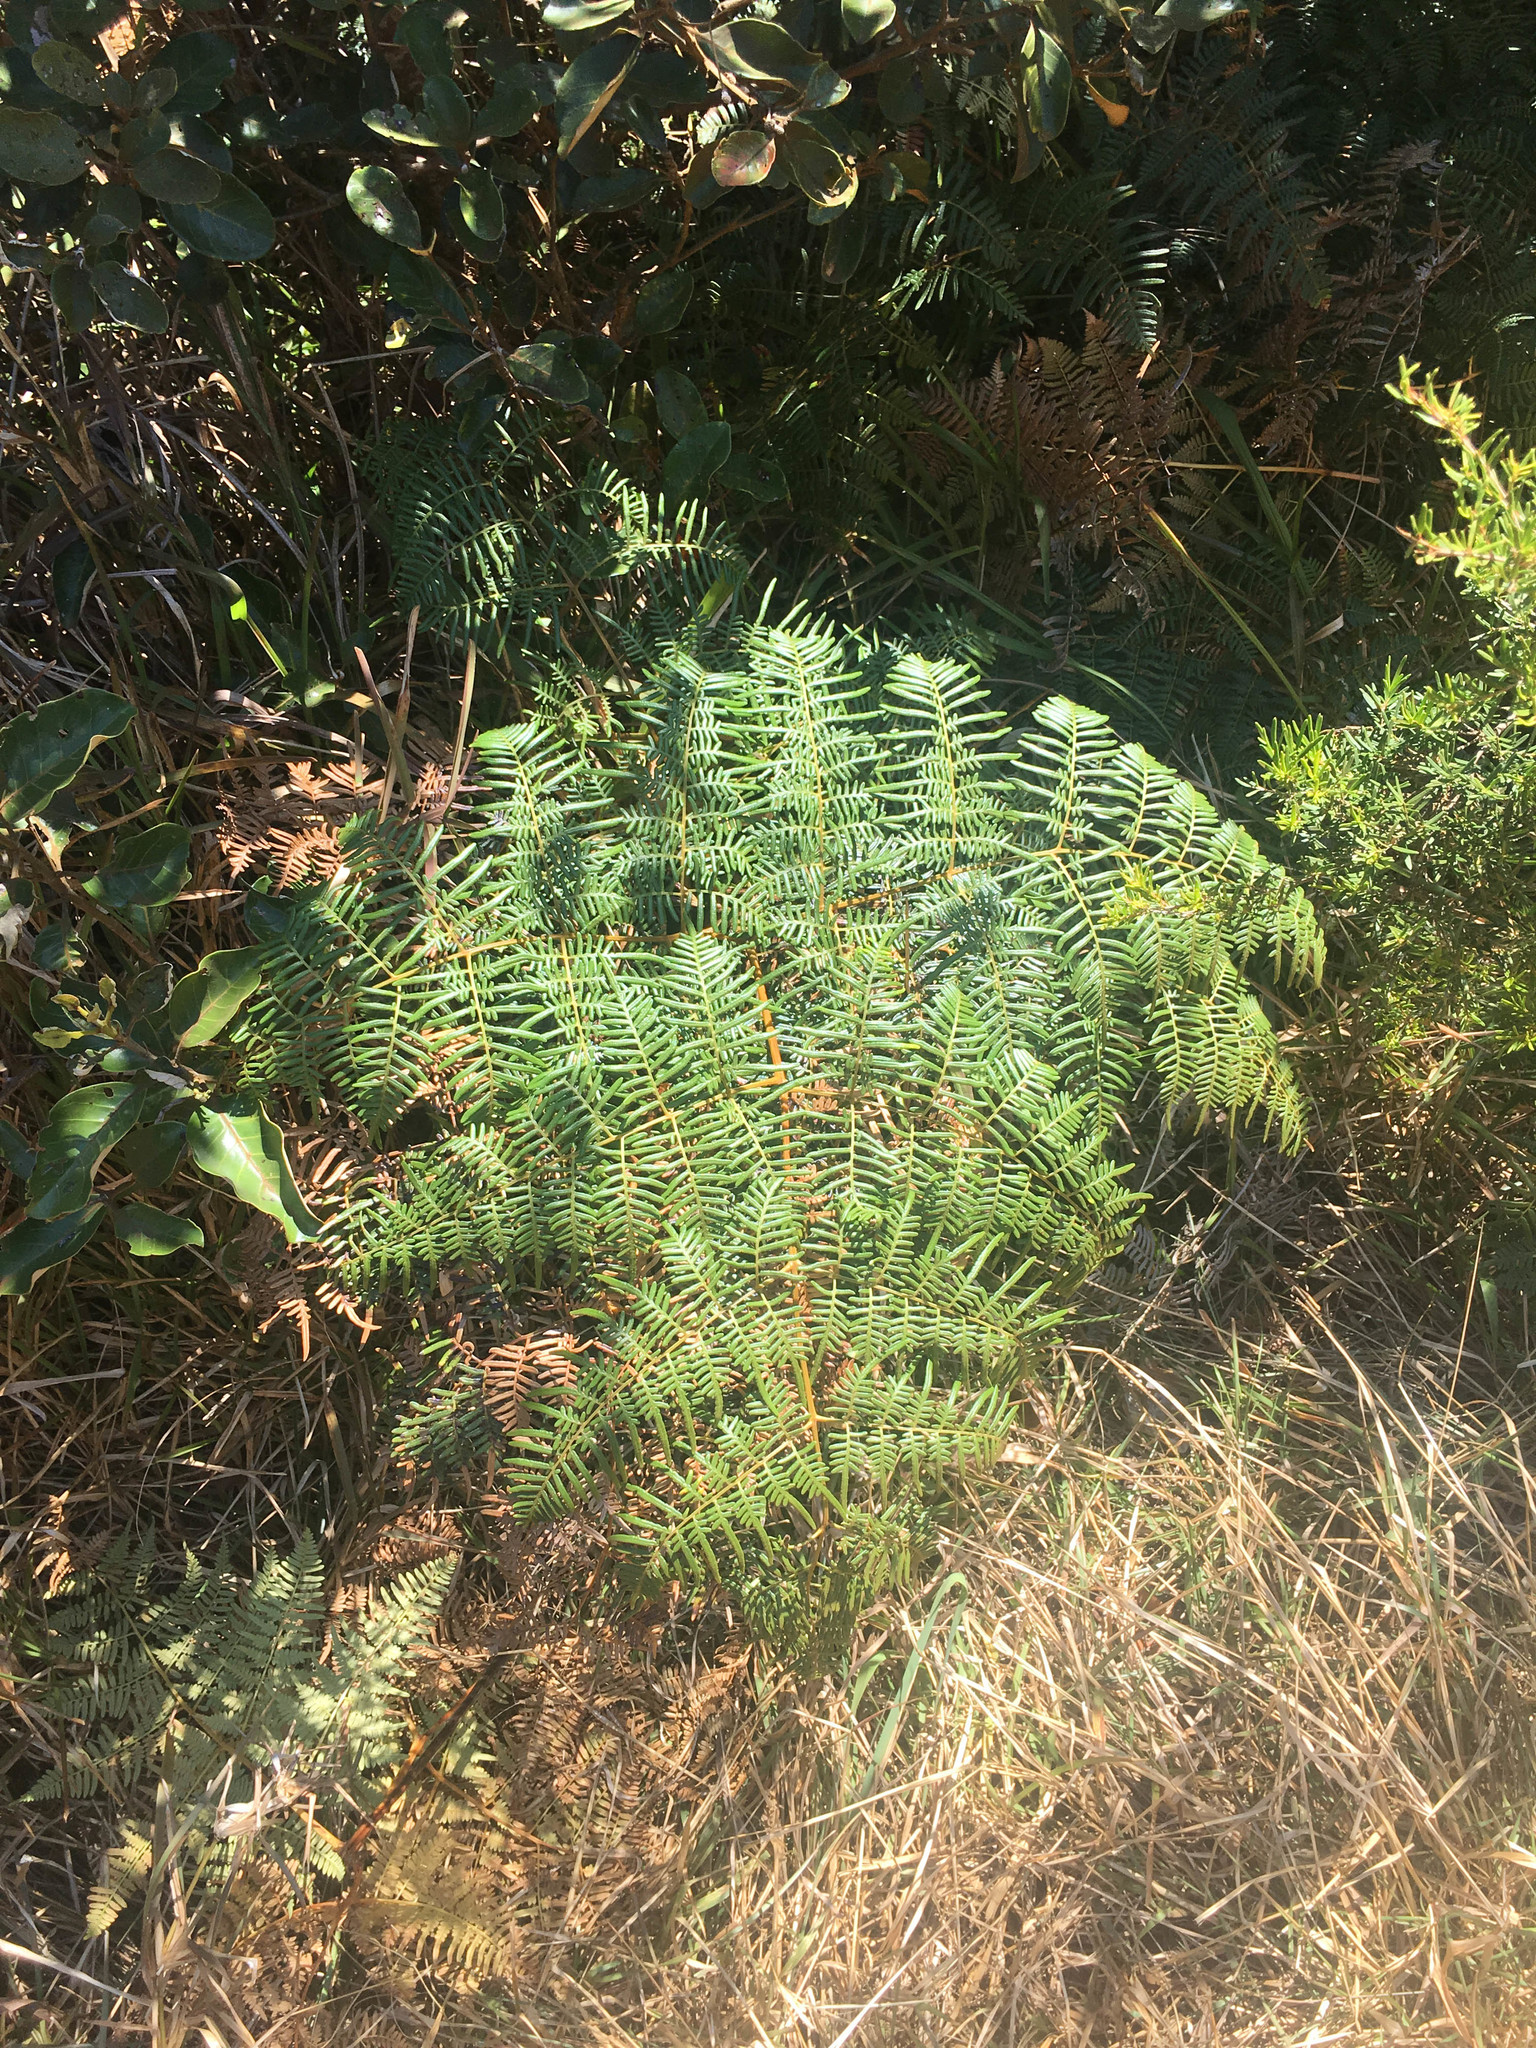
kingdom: Plantae
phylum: Tracheophyta
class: Polypodiopsida
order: Polypodiales
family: Dennstaedtiaceae
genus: Pteridium
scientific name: Pteridium esculentum
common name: Bracken fern
